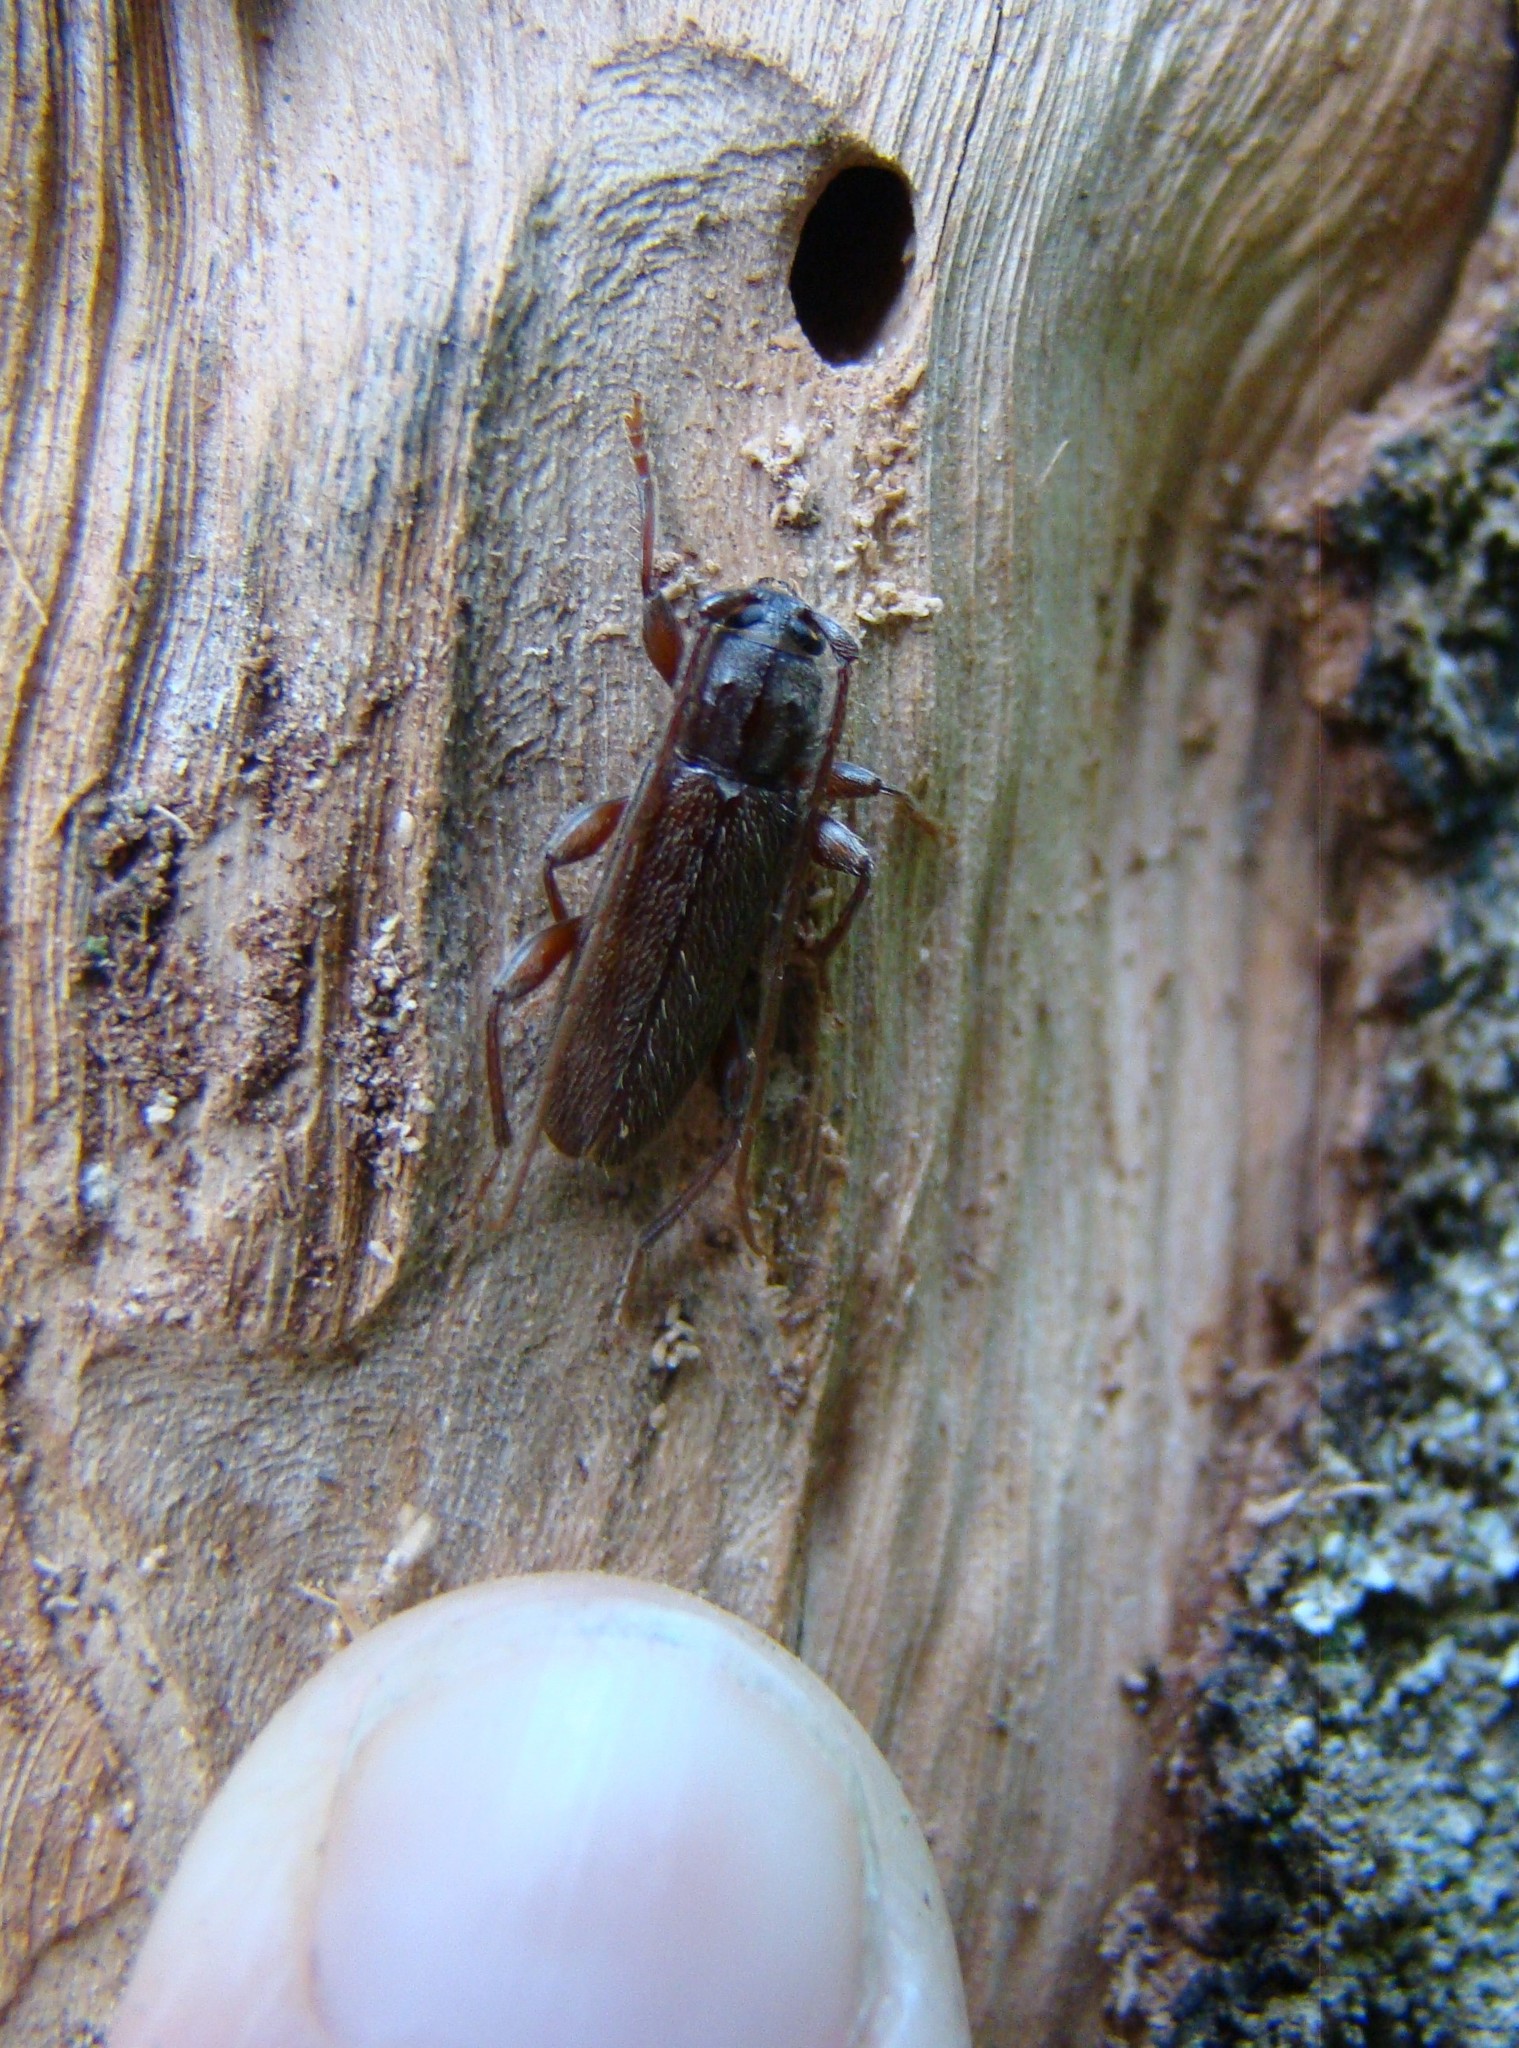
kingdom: Animalia
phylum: Arthropoda
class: Insecta
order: Coleoptera
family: Cerambycidae
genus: Liogramma
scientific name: Liogramma zelandica
